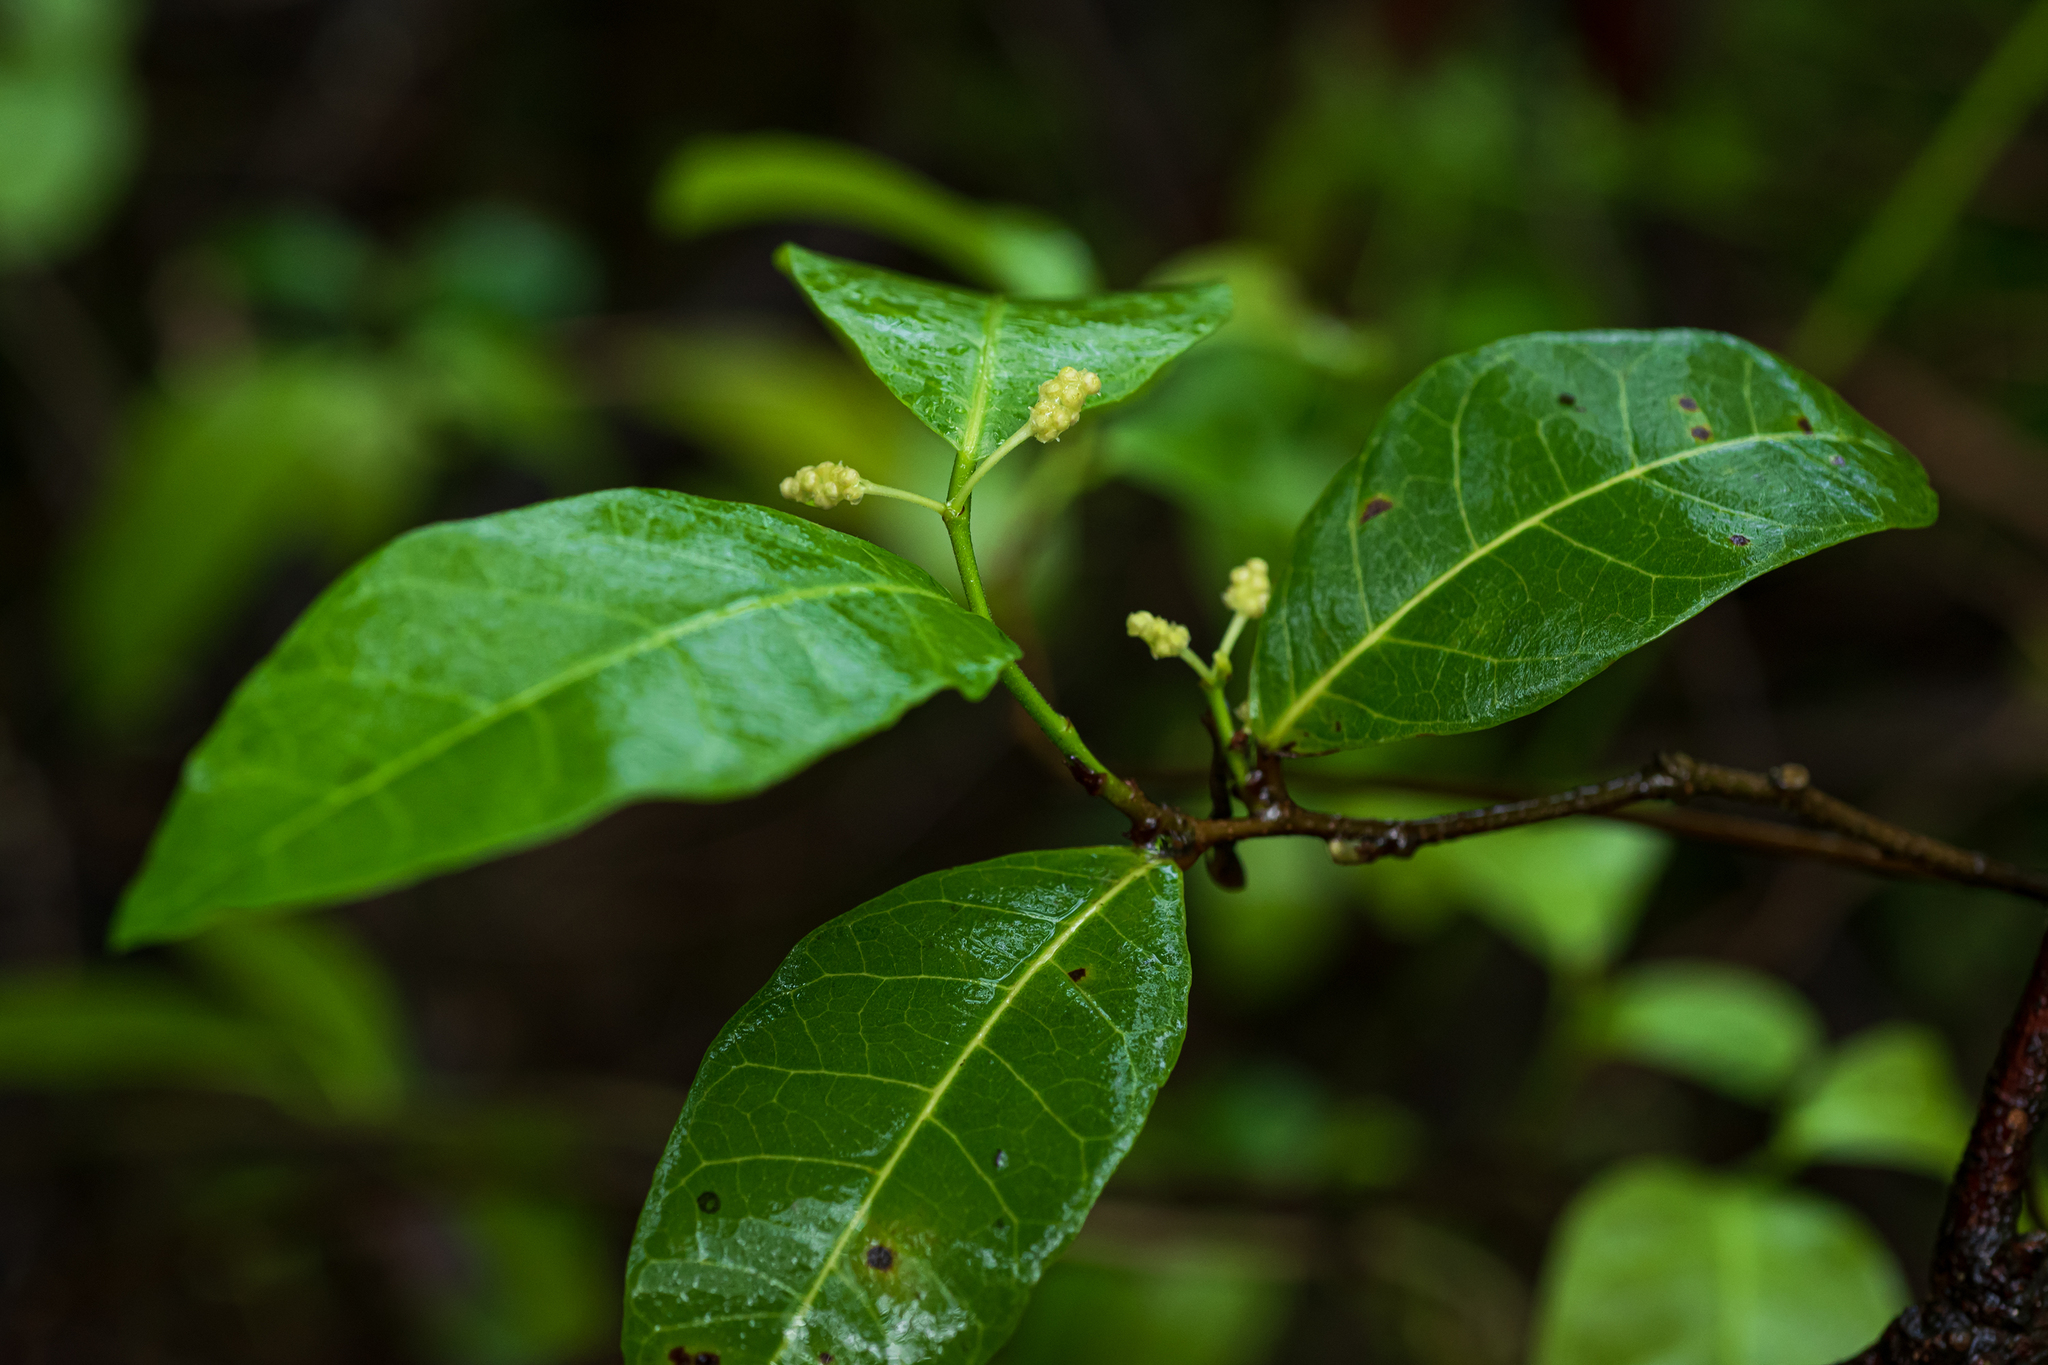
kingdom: Plantae
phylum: Tracheophyta
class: Magnoliopsida
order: Rosales
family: Moraceae
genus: Malaisia
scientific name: Malaisia scandens
